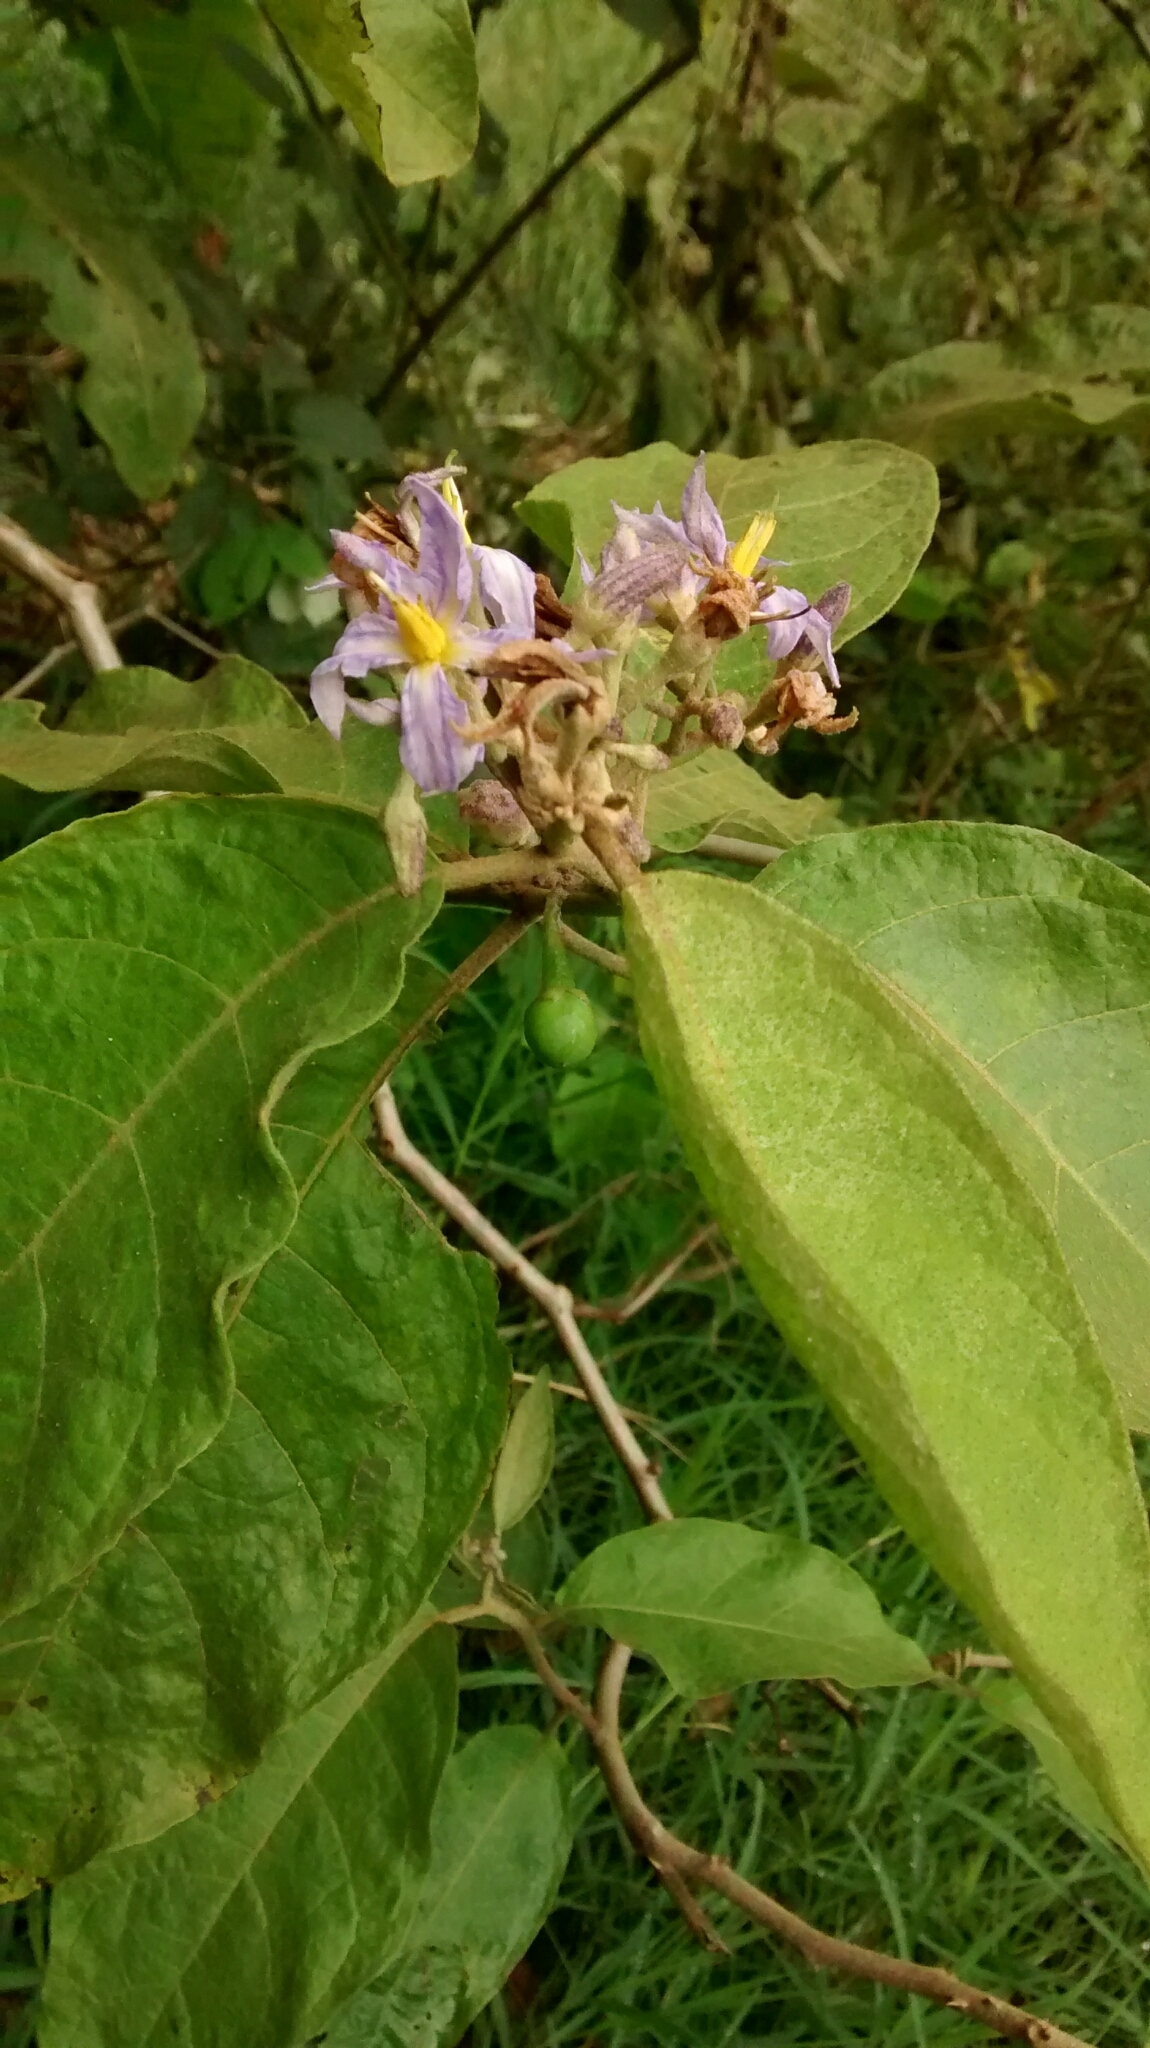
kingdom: Plantae
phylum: Tracheophyta
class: Magnoliopsida
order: Solanales
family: Solanaceae
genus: Solanum
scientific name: Solanum ovalifolium
